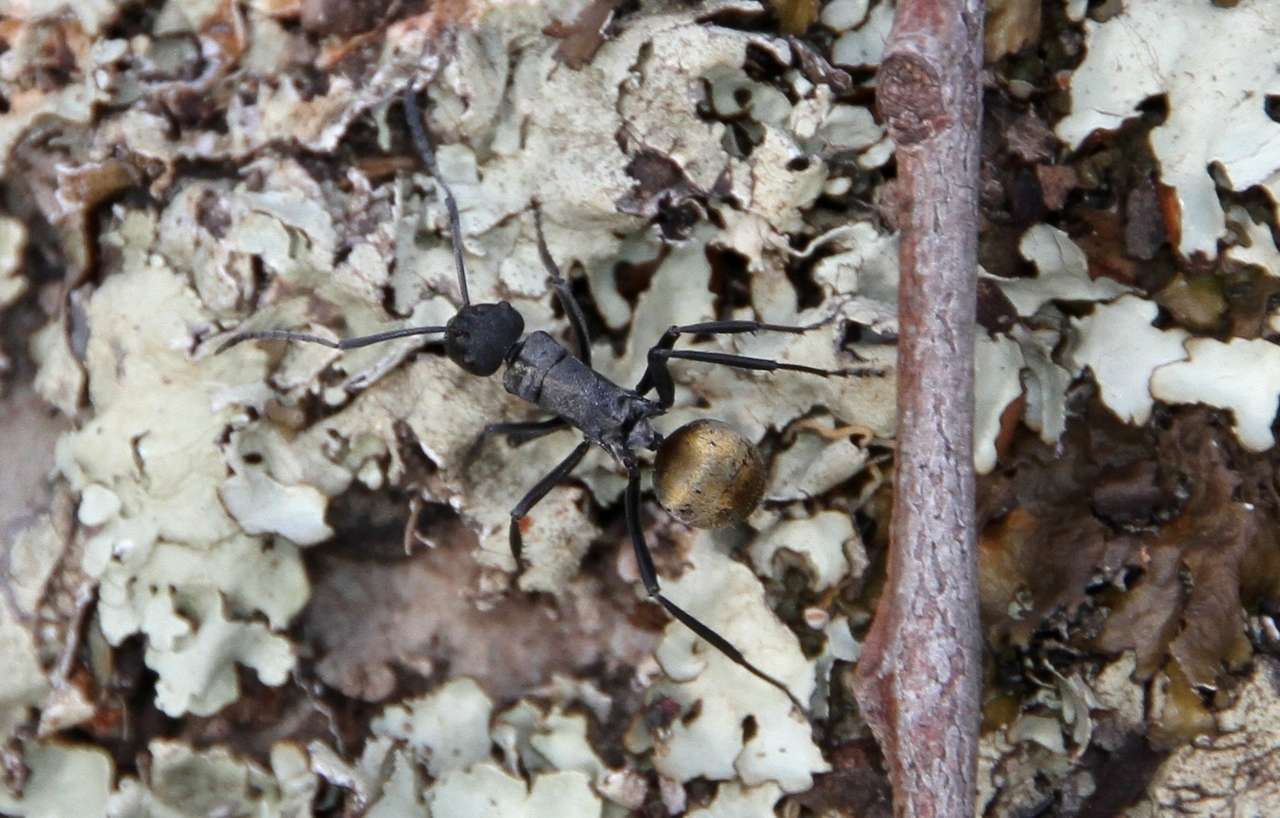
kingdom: Animalia
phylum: Arthropoda
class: Insecta
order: Hymenoptera
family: Formicidae
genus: Polyrhachis
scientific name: Polyrhachis ammon
